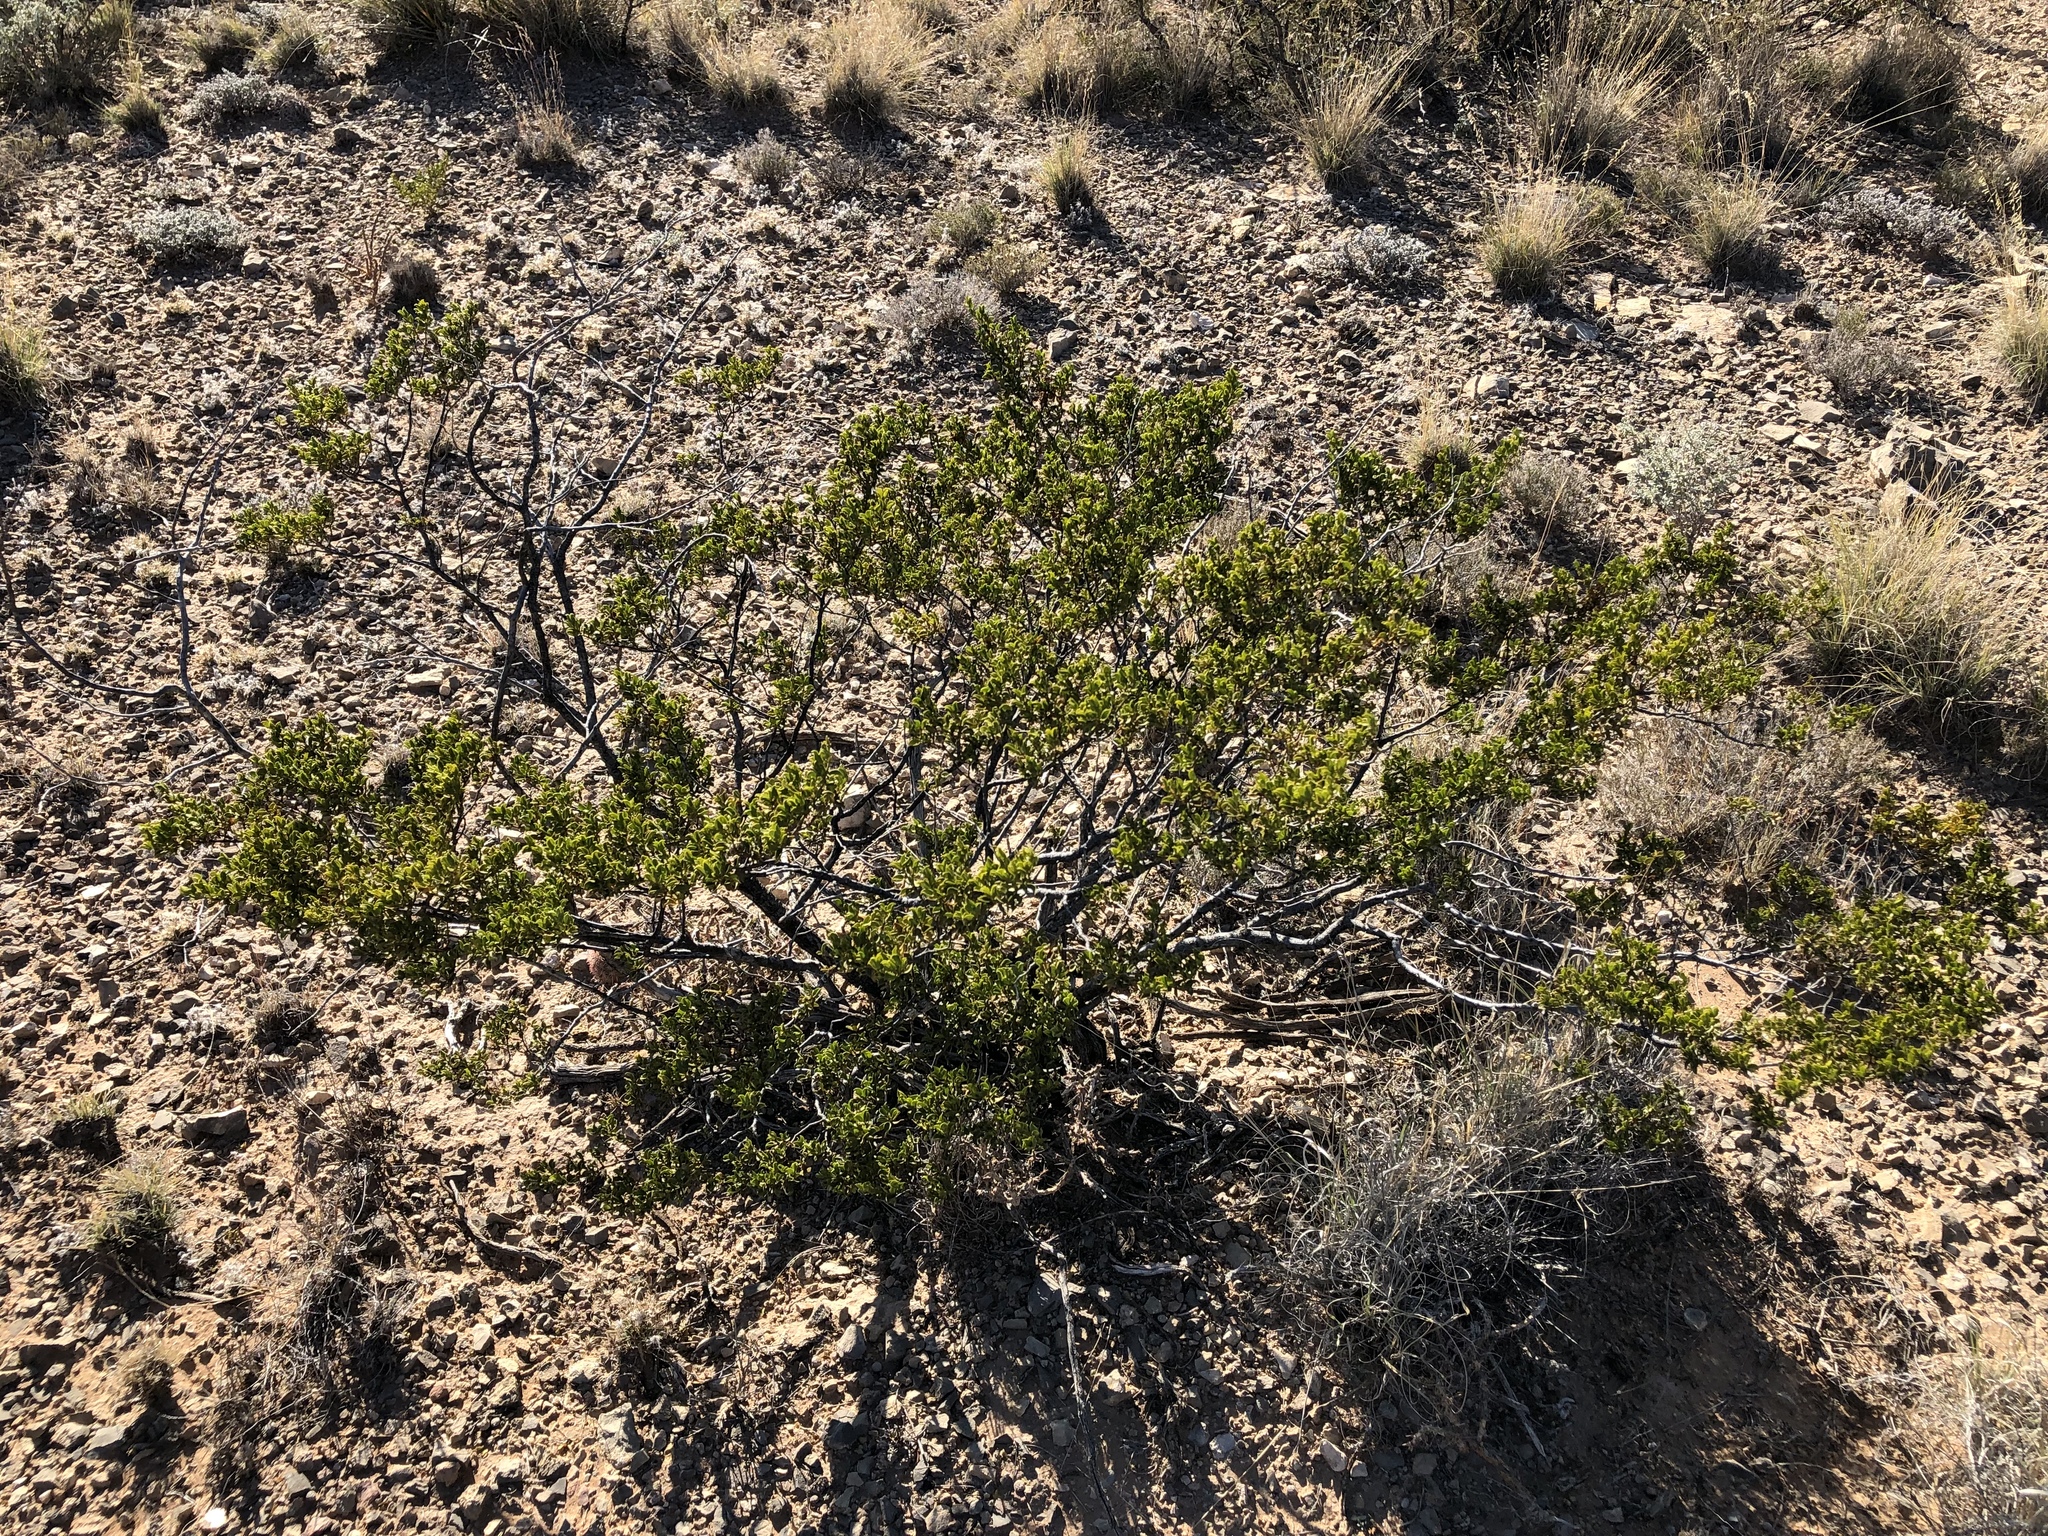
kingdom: Plantae
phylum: Tracheophyta
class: Magnoliopsida
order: Zygophyllales
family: Zygophyllaceae
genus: Larrea
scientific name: Larrea tridentata
